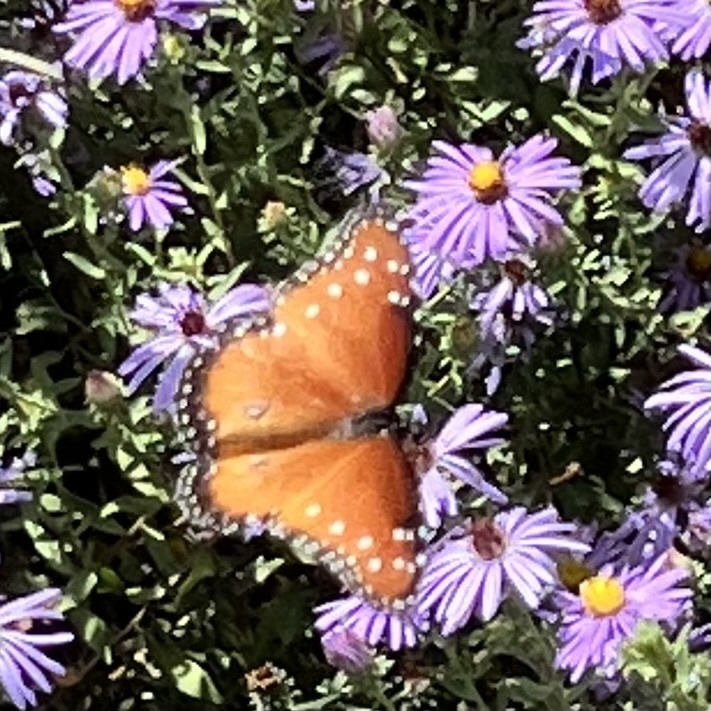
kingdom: Animalia
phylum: Arthropoda
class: Insecta
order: Lepidoptera
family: Nymphalidae
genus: Danaus
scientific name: Danaus gilippus
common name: Queen
